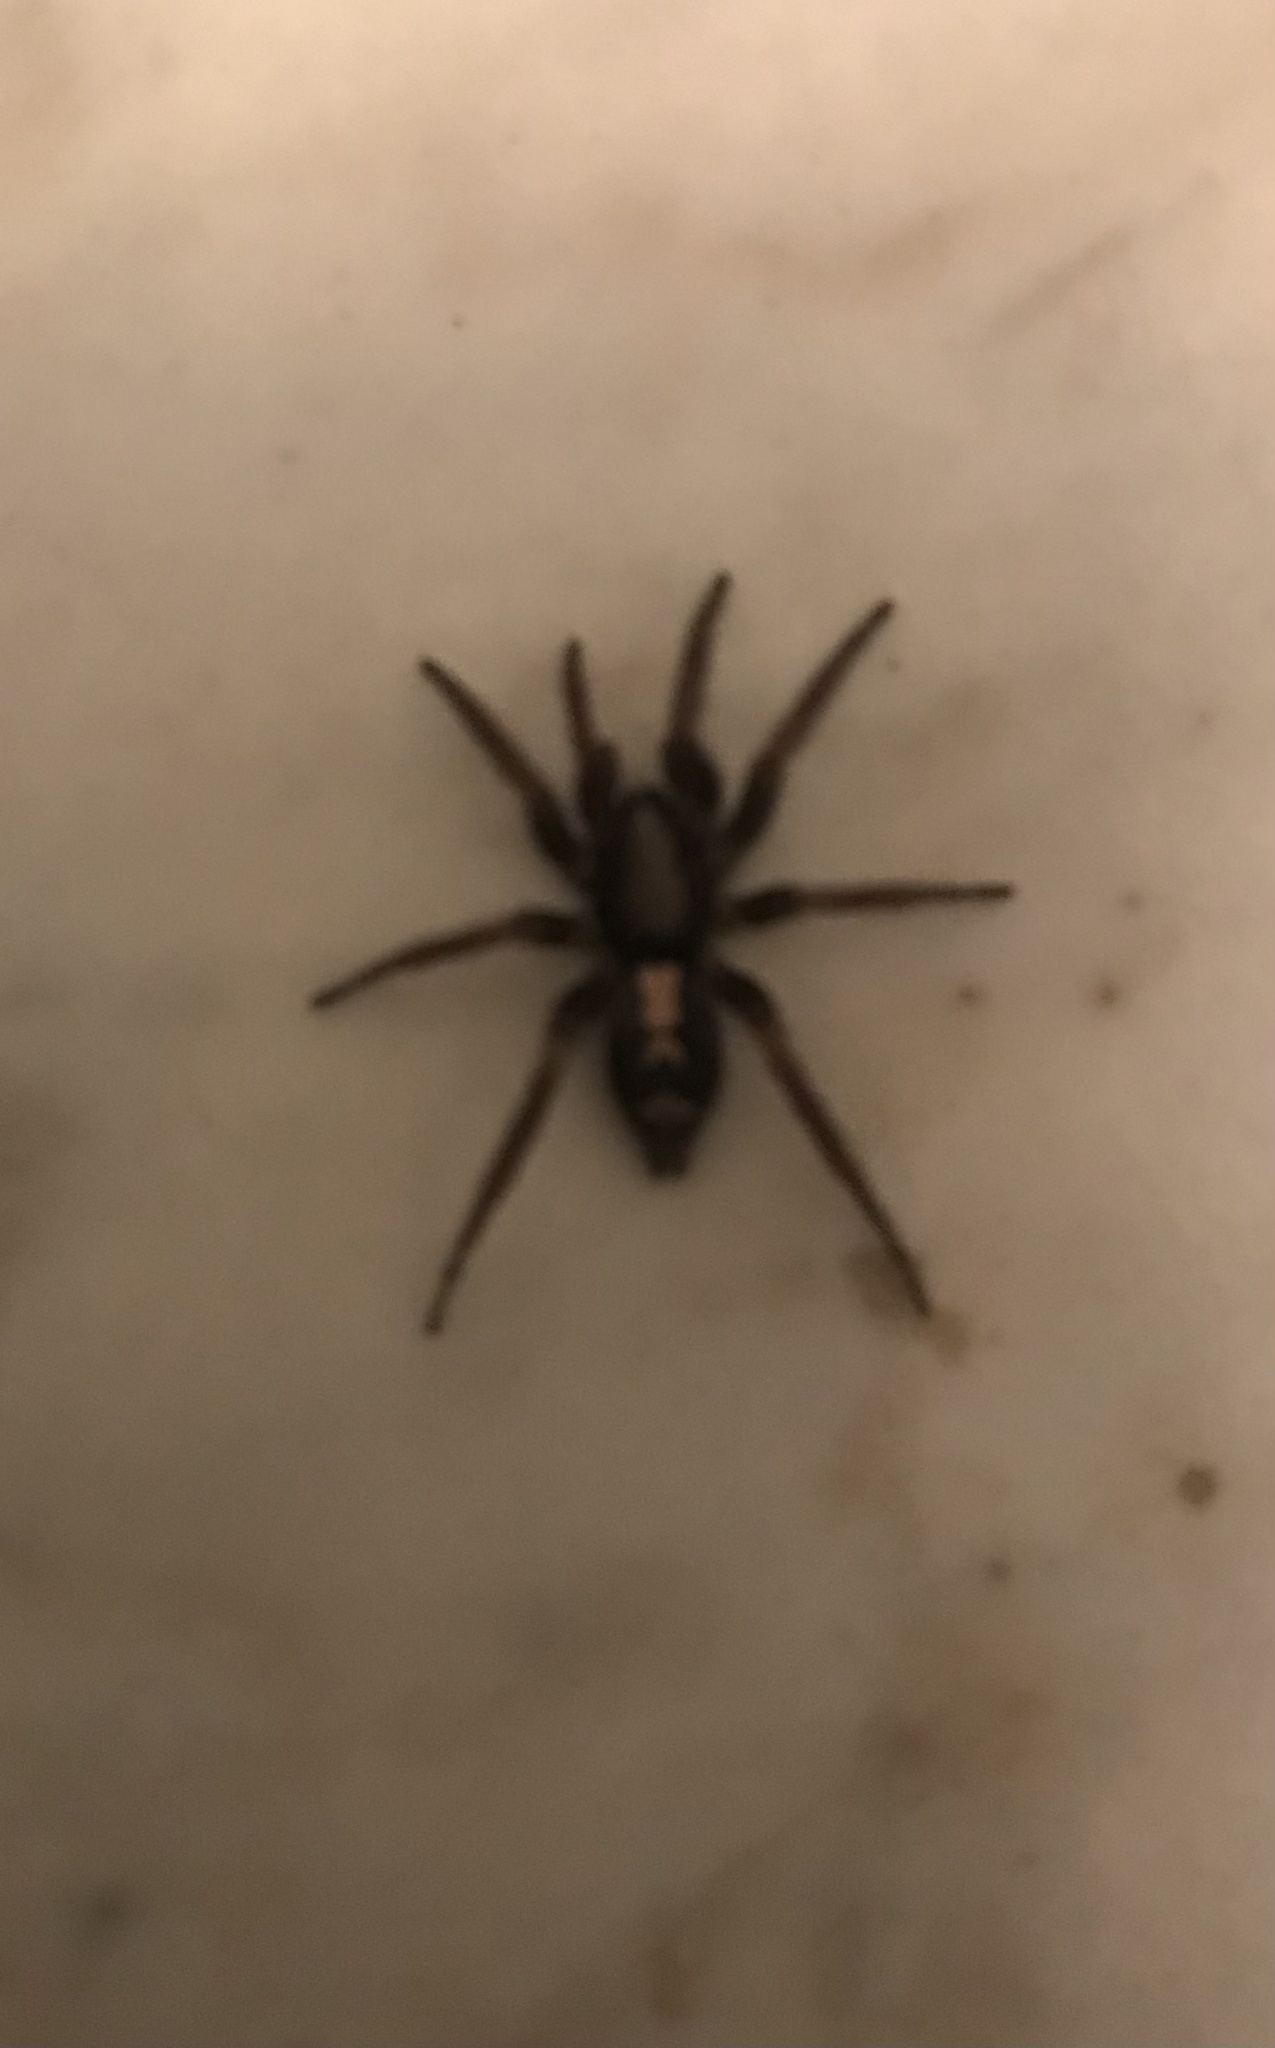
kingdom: Animalia
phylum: Arthropoda
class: Arachnida
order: Araneae
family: Gnaphosidae
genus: Herpyllus
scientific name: Herpyllus ecclesiasticus
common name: Eastern parson spider
